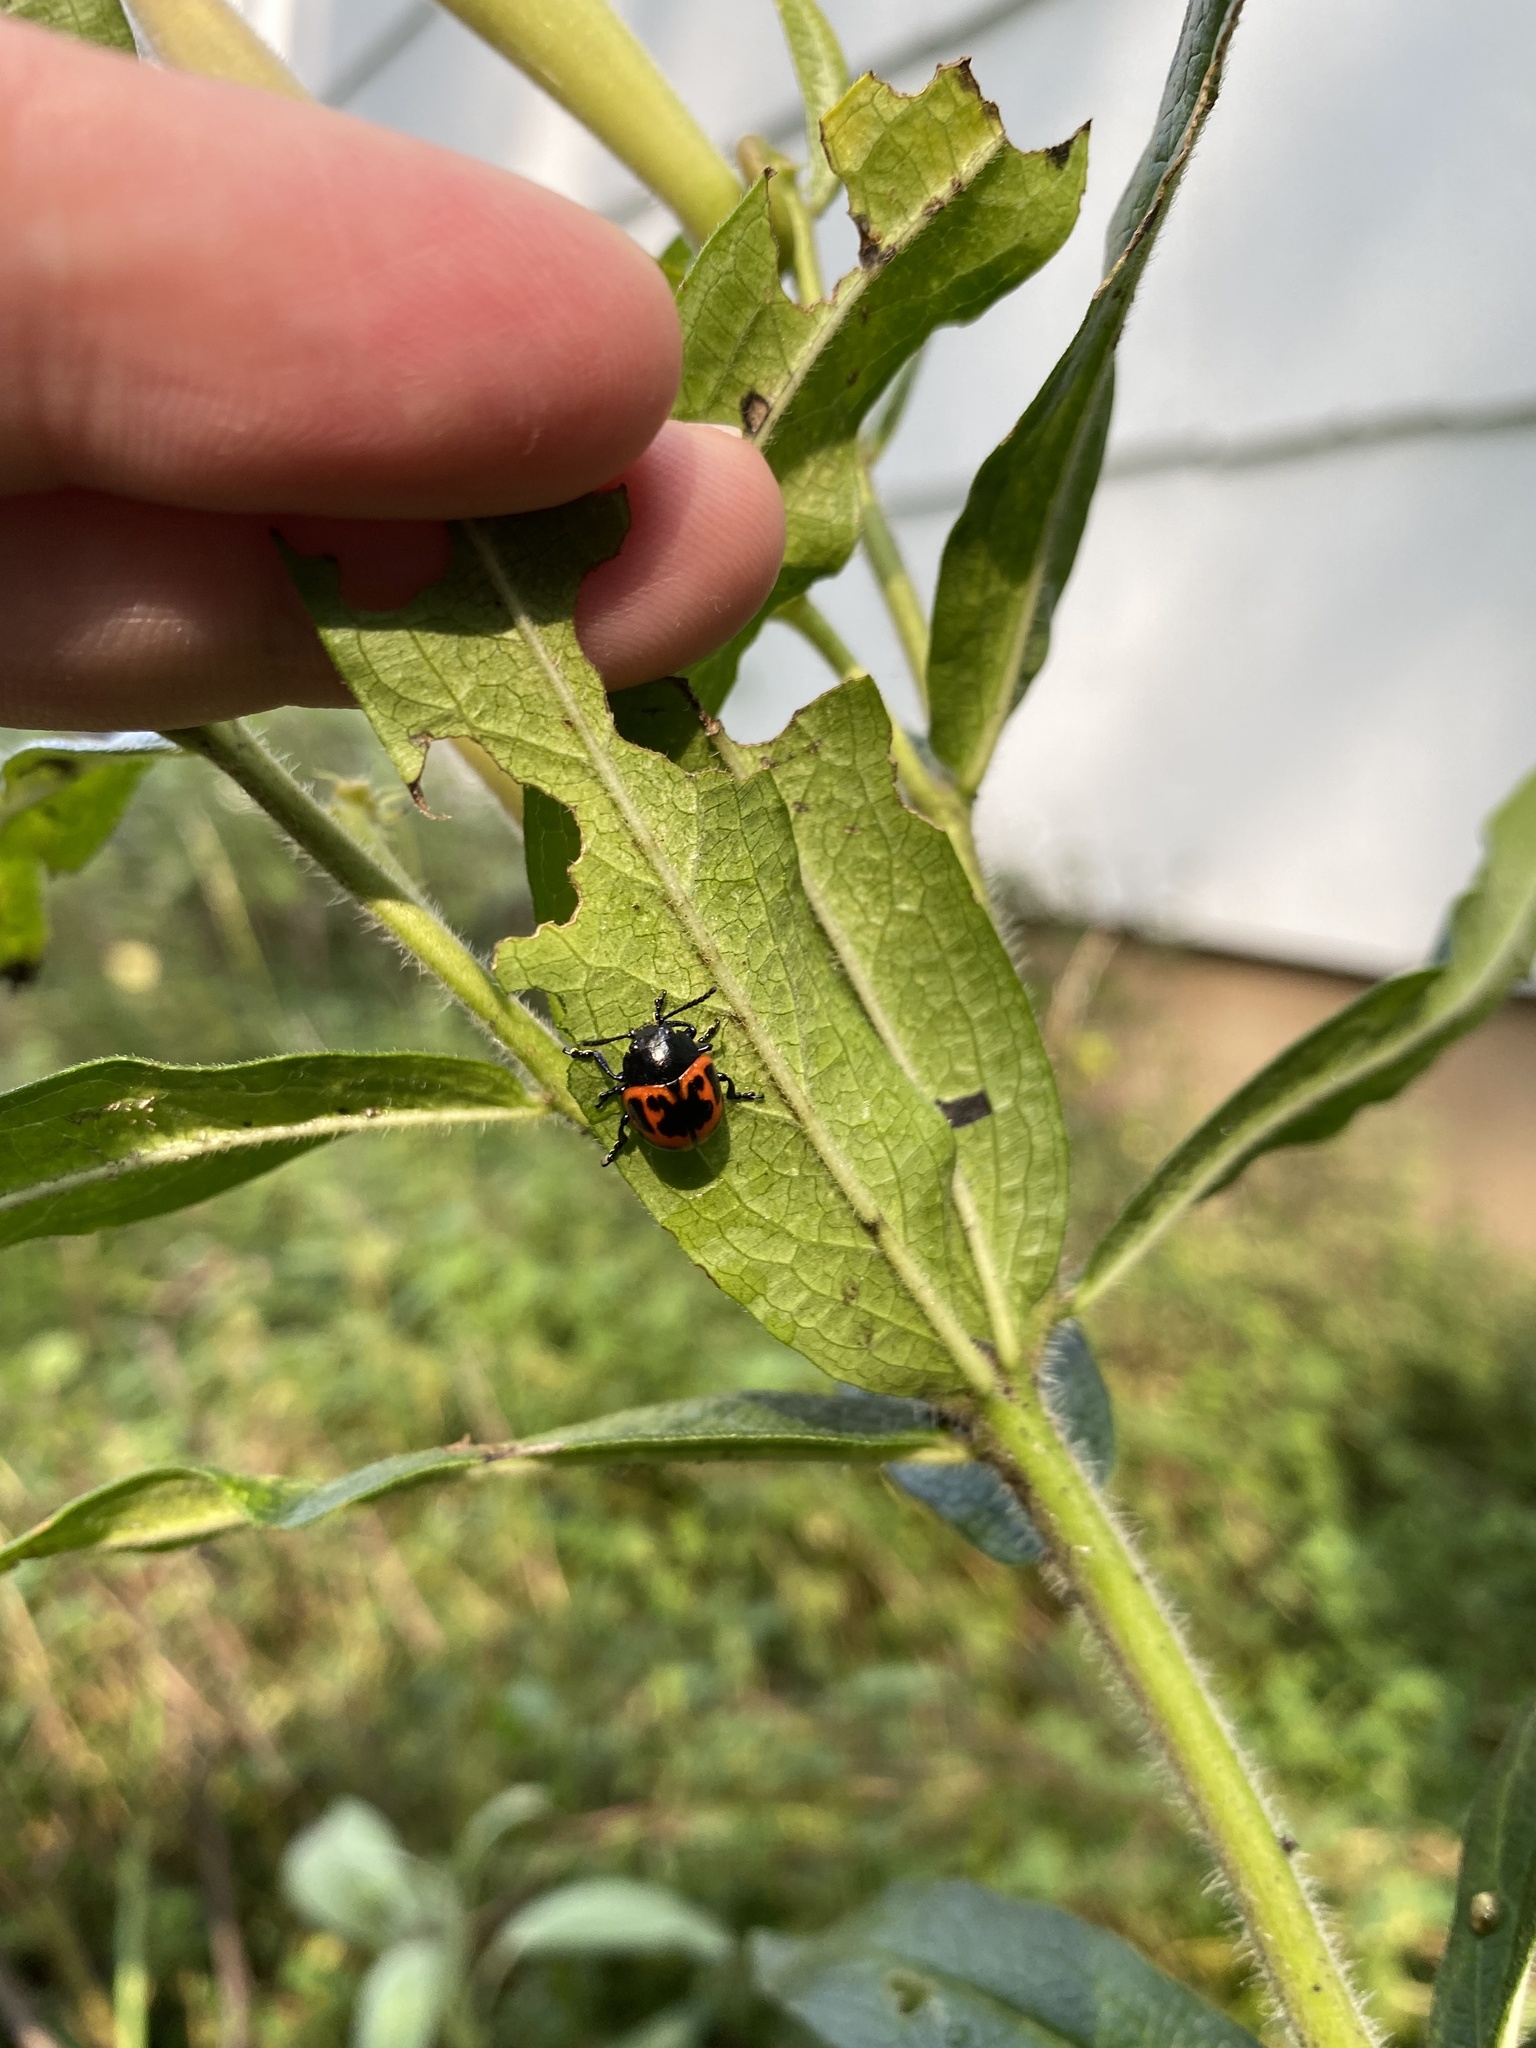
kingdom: Animalia
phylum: Arthropoda
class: Insecta
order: Coleoptera
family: Chrysomelidae
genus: Labidomera
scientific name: Labidomera clivicollis
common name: Swamp milkweed leaf beetle
